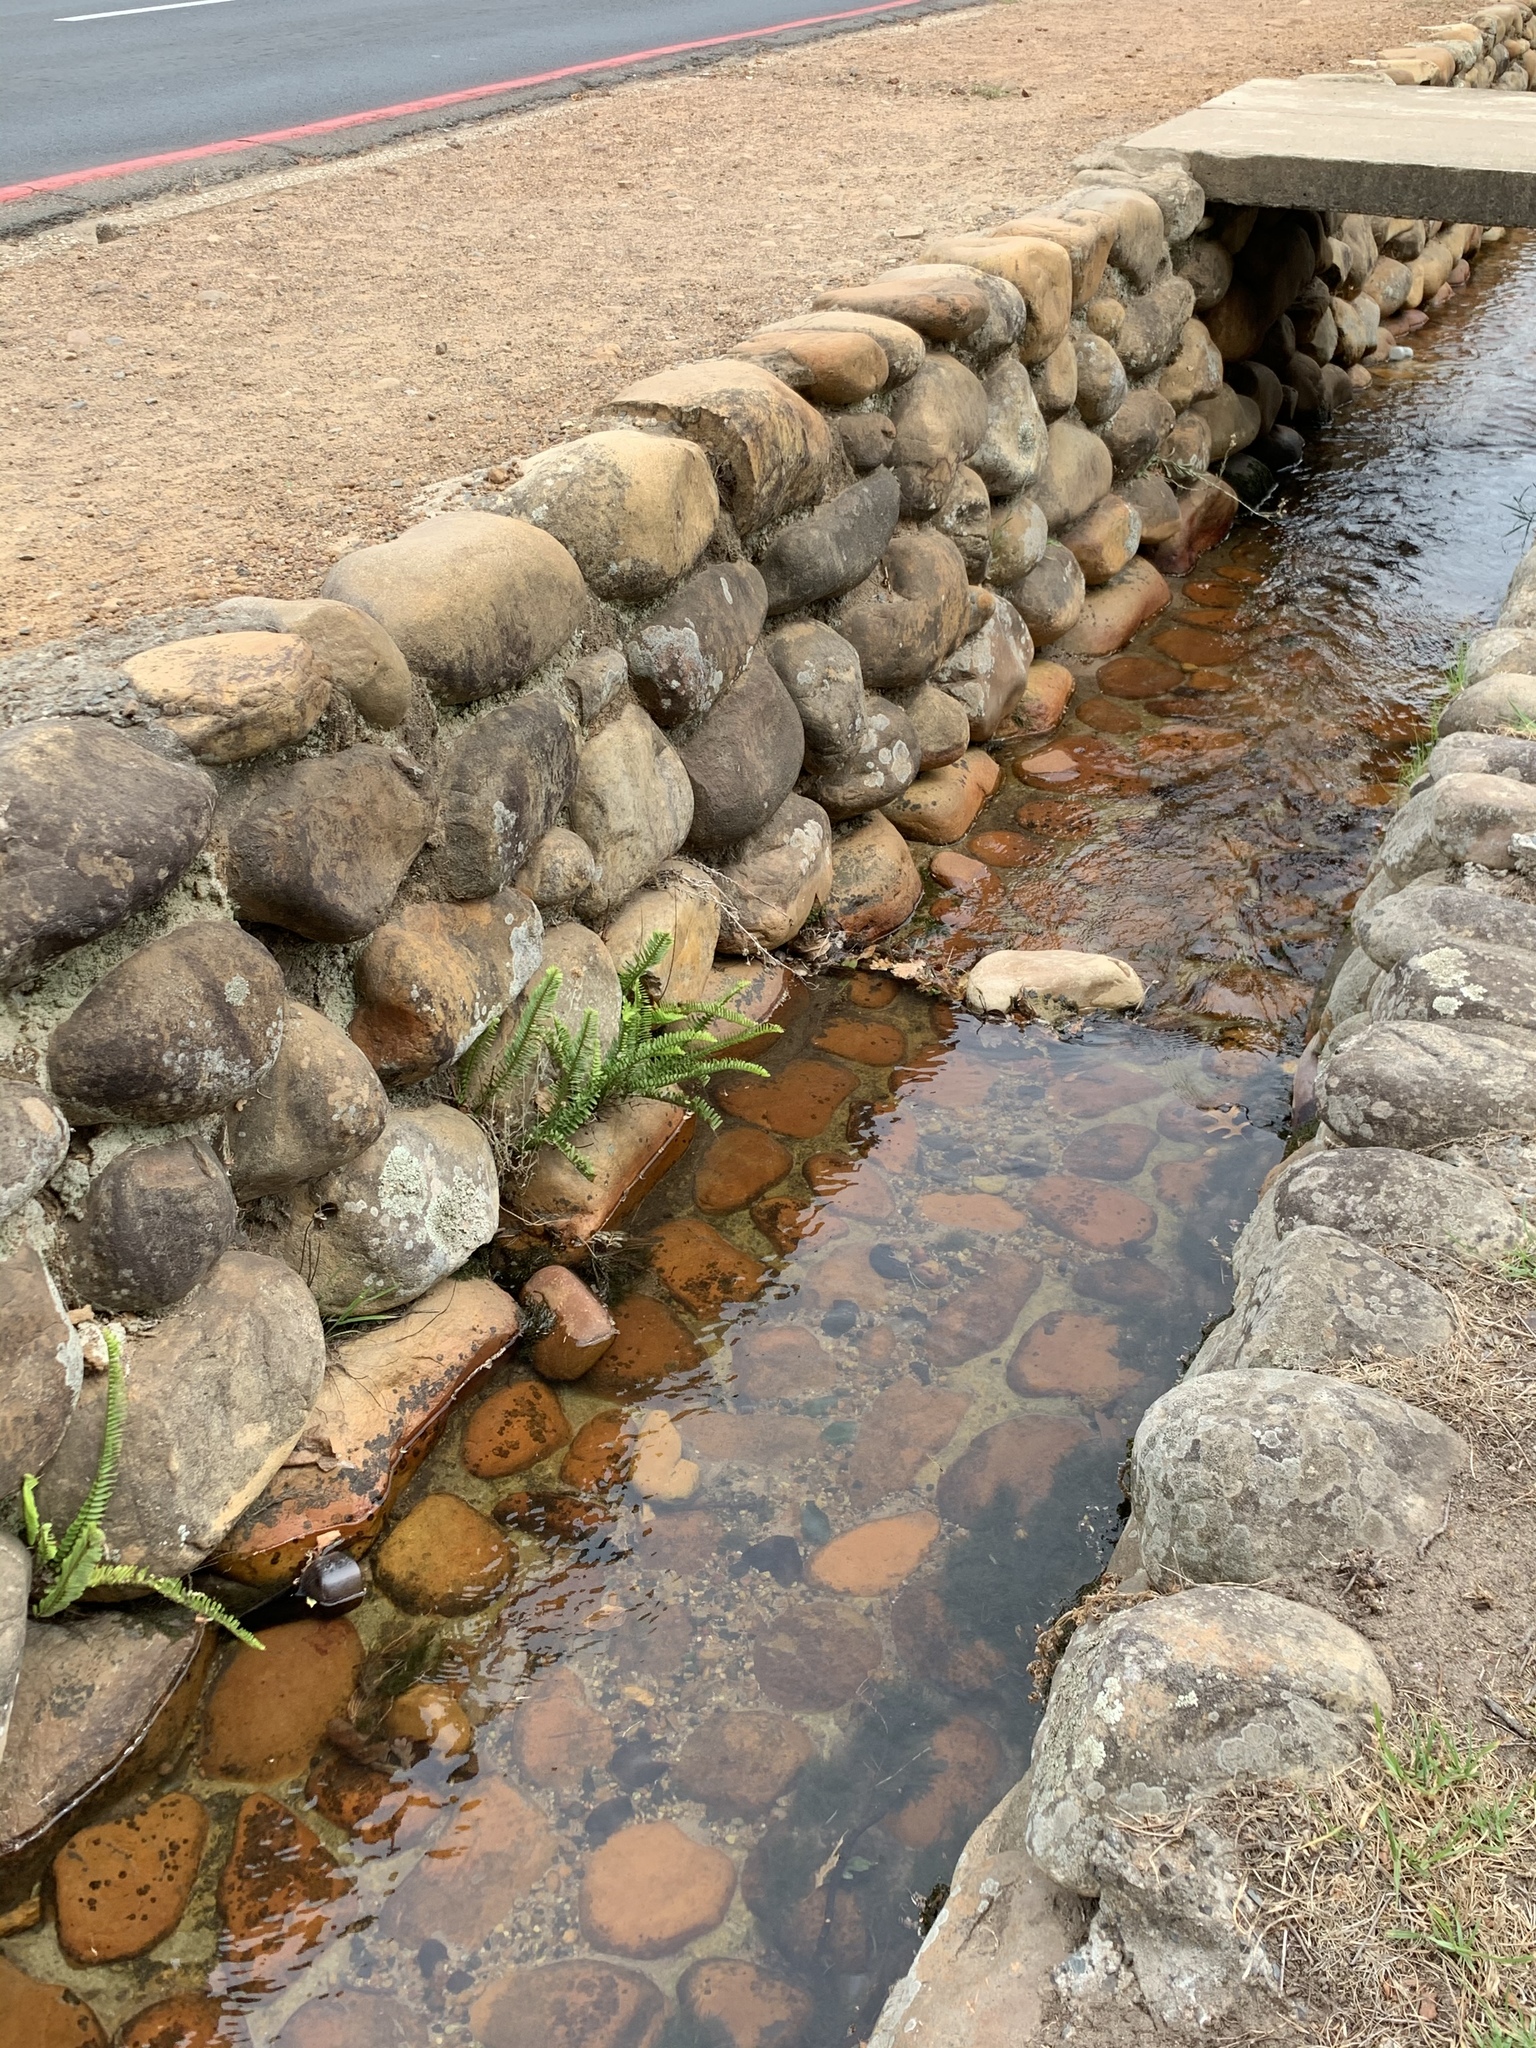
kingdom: Plantae
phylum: Tracheophyta
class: Polypodiopsida
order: Polypodiales
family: Nephrolepidaceae
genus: Nephrolepis
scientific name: Nephrolepis cordifolia
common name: Narrow swordfern
